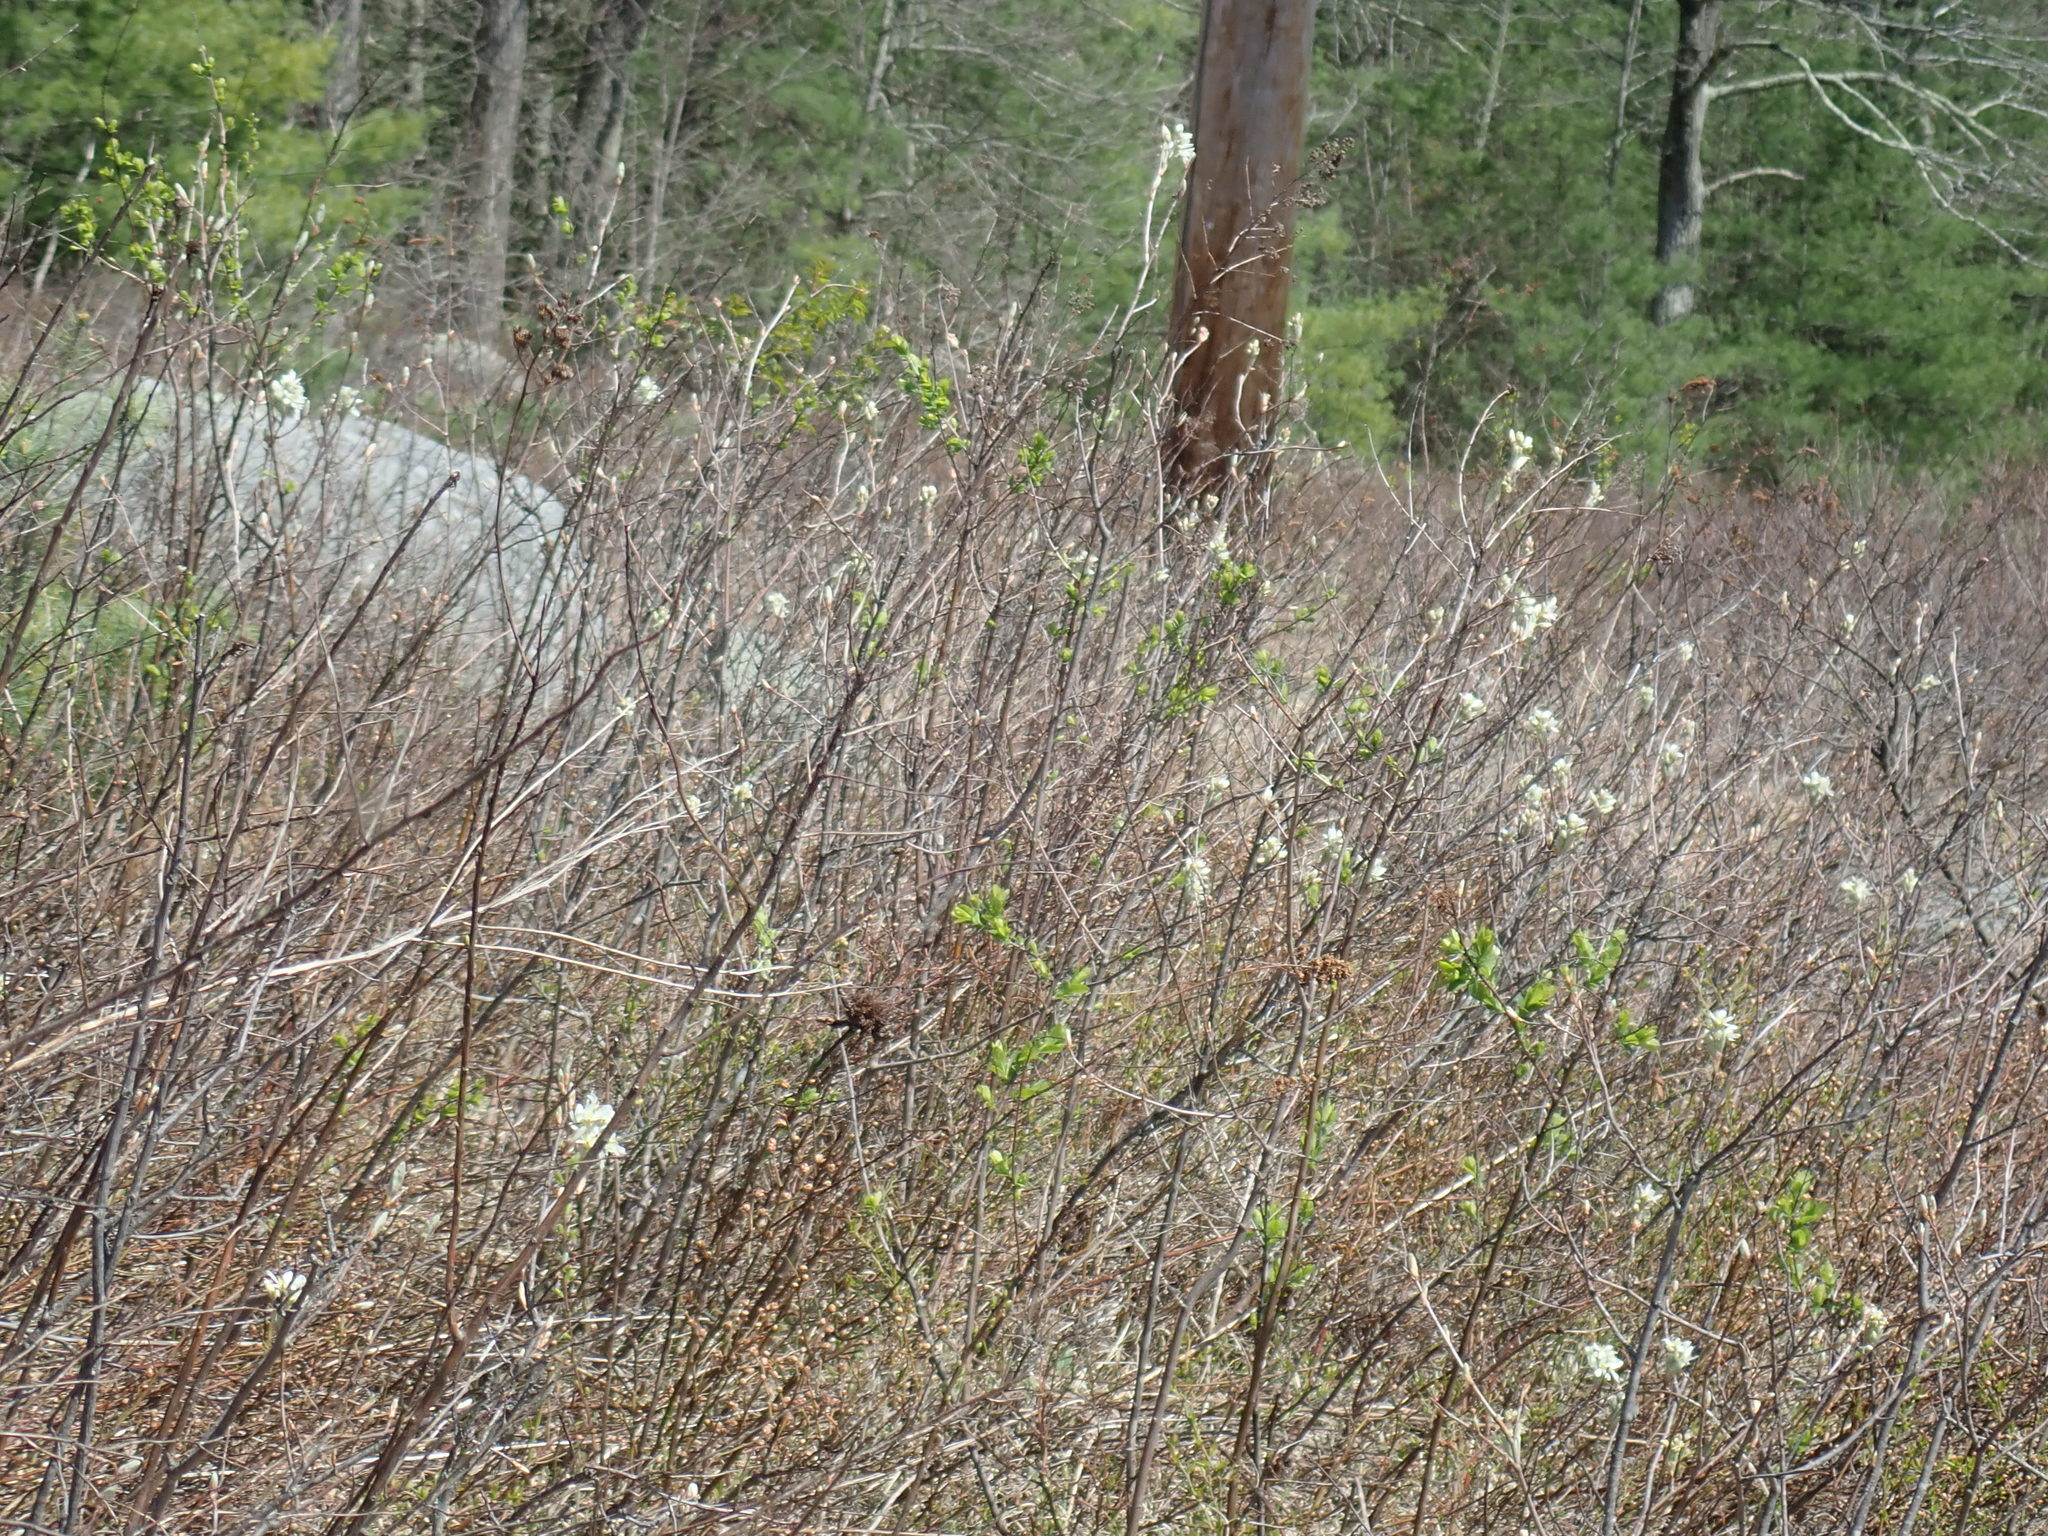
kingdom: Plantae
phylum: Tracheophyta
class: Magnoliopsida
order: Rosales
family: Rosaceae
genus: Amelanchier
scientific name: Amelanchier
